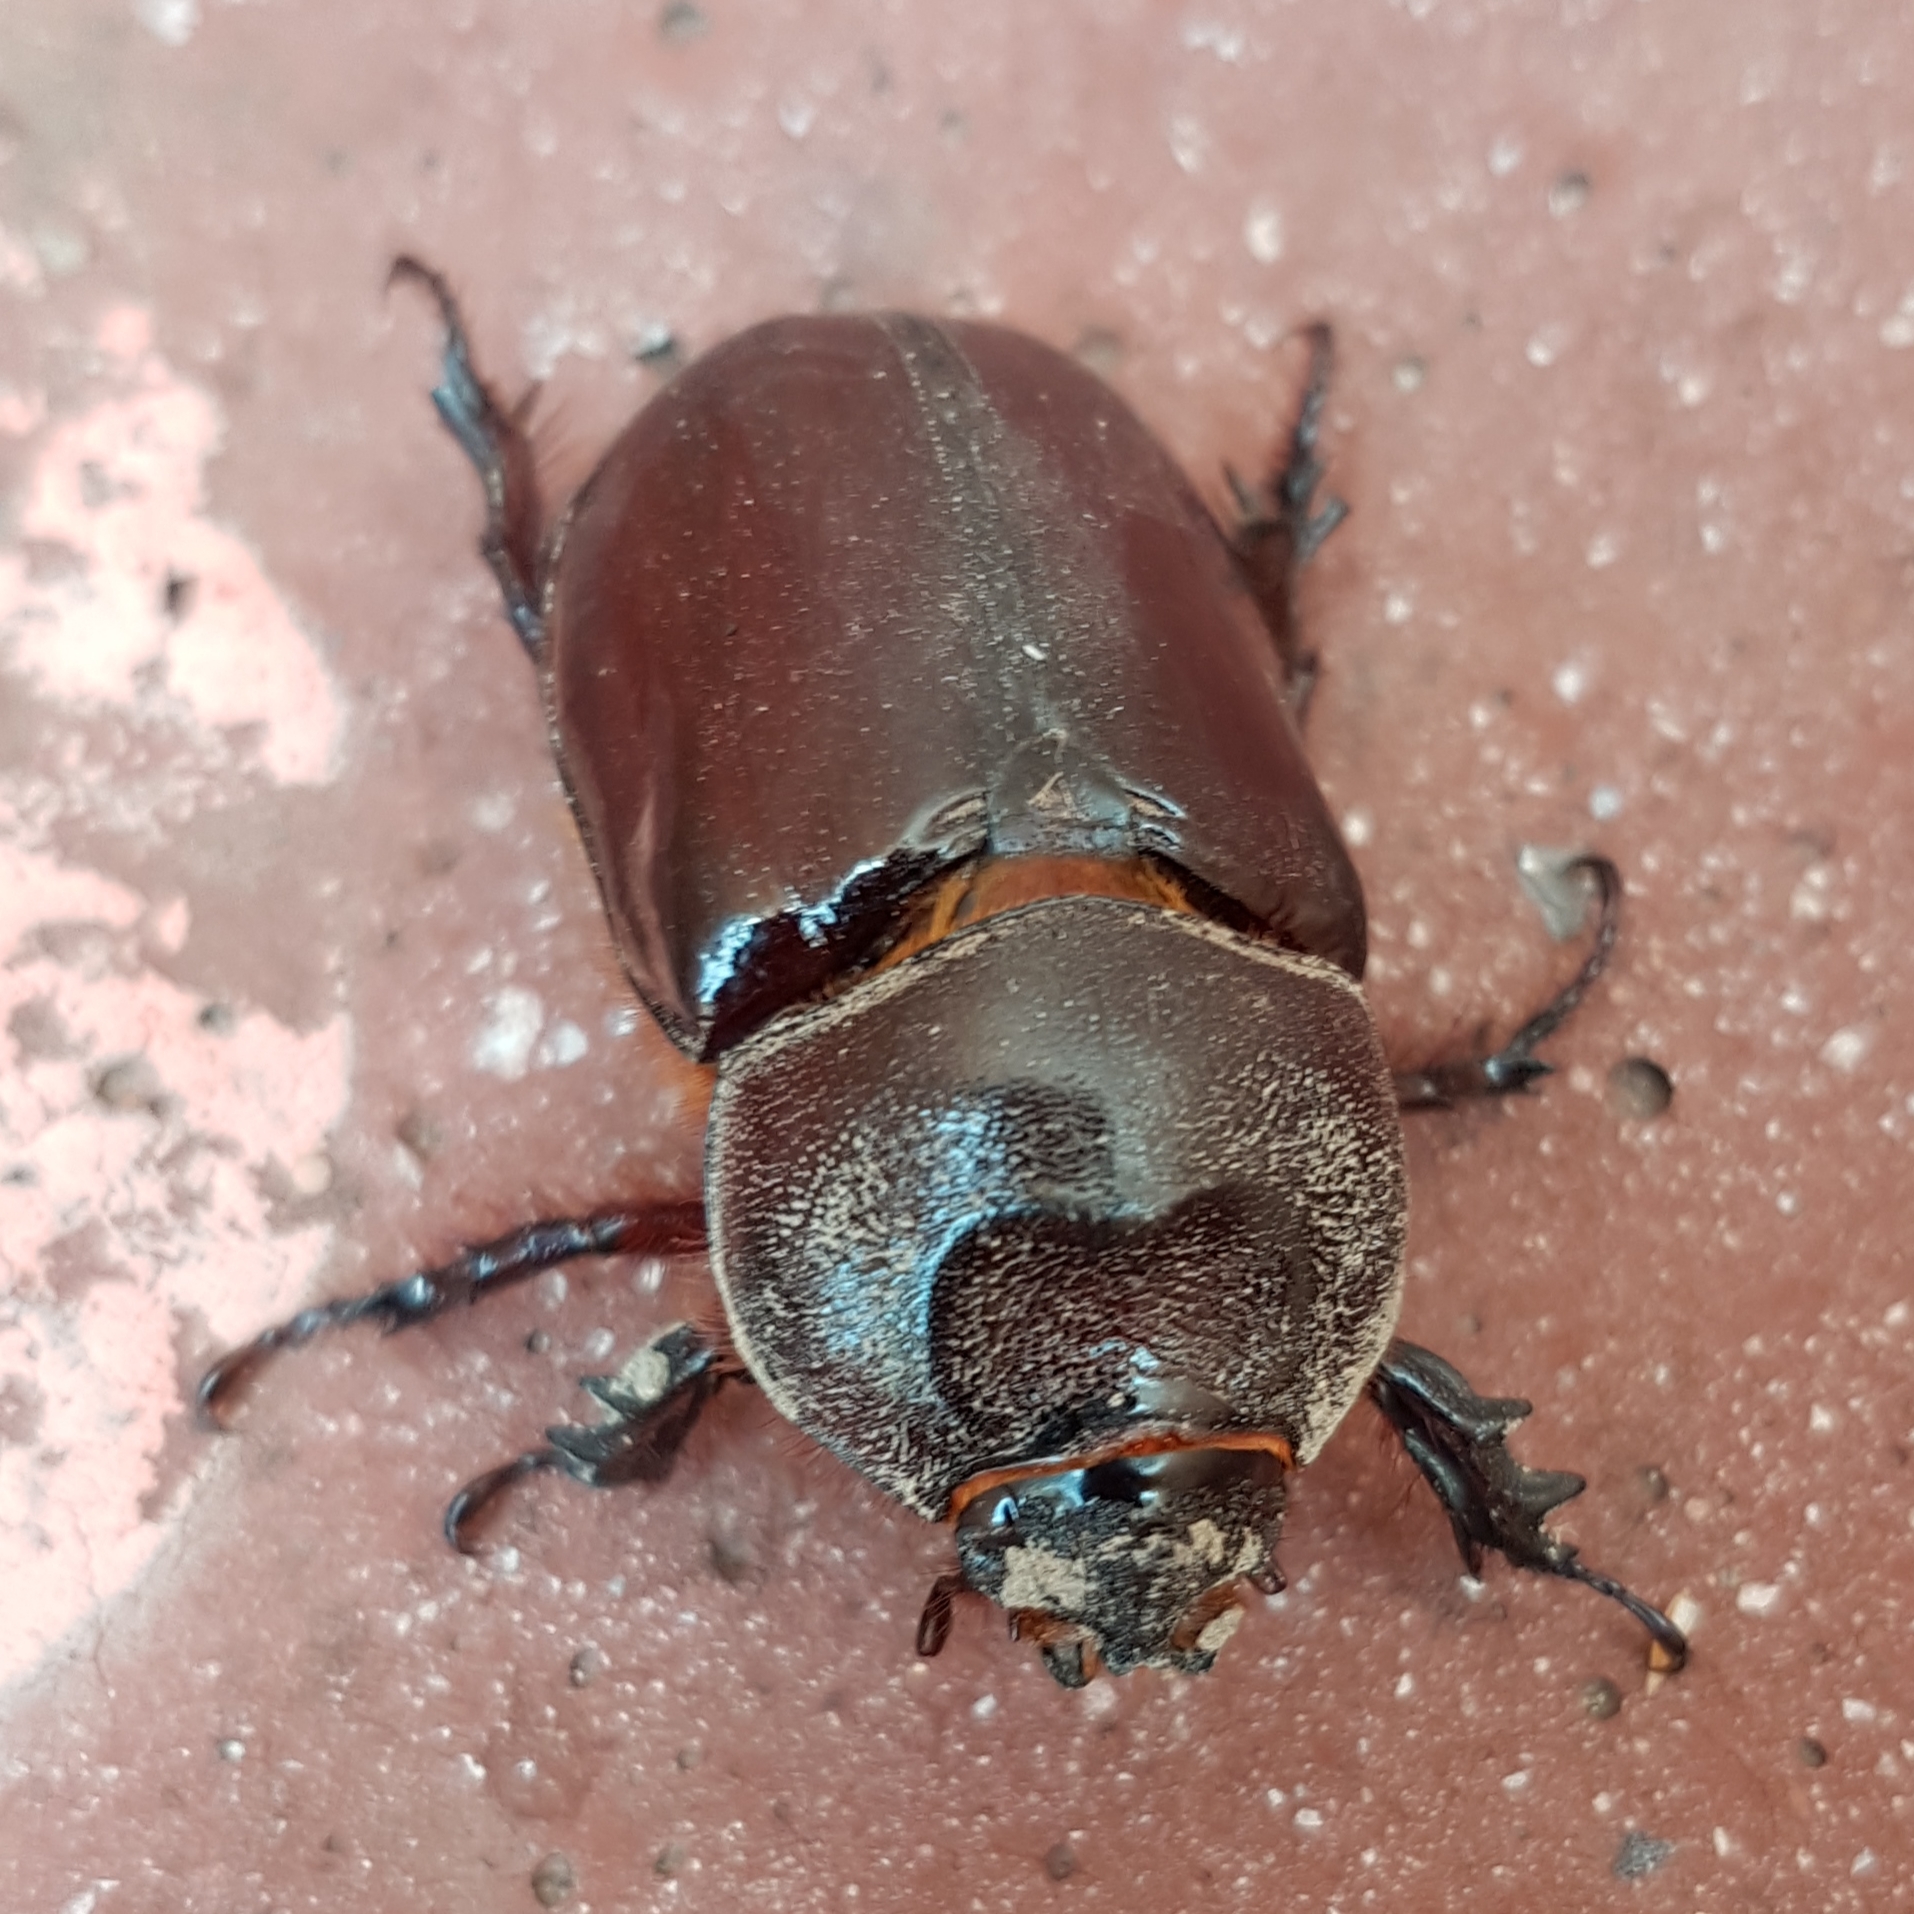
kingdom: Animalia
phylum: Arthropoda
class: Insecta
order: Coleoptera
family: Scarabaeidae
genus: Oryctes
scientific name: Oryctes nasicornis
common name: European rhinoceros beetle
